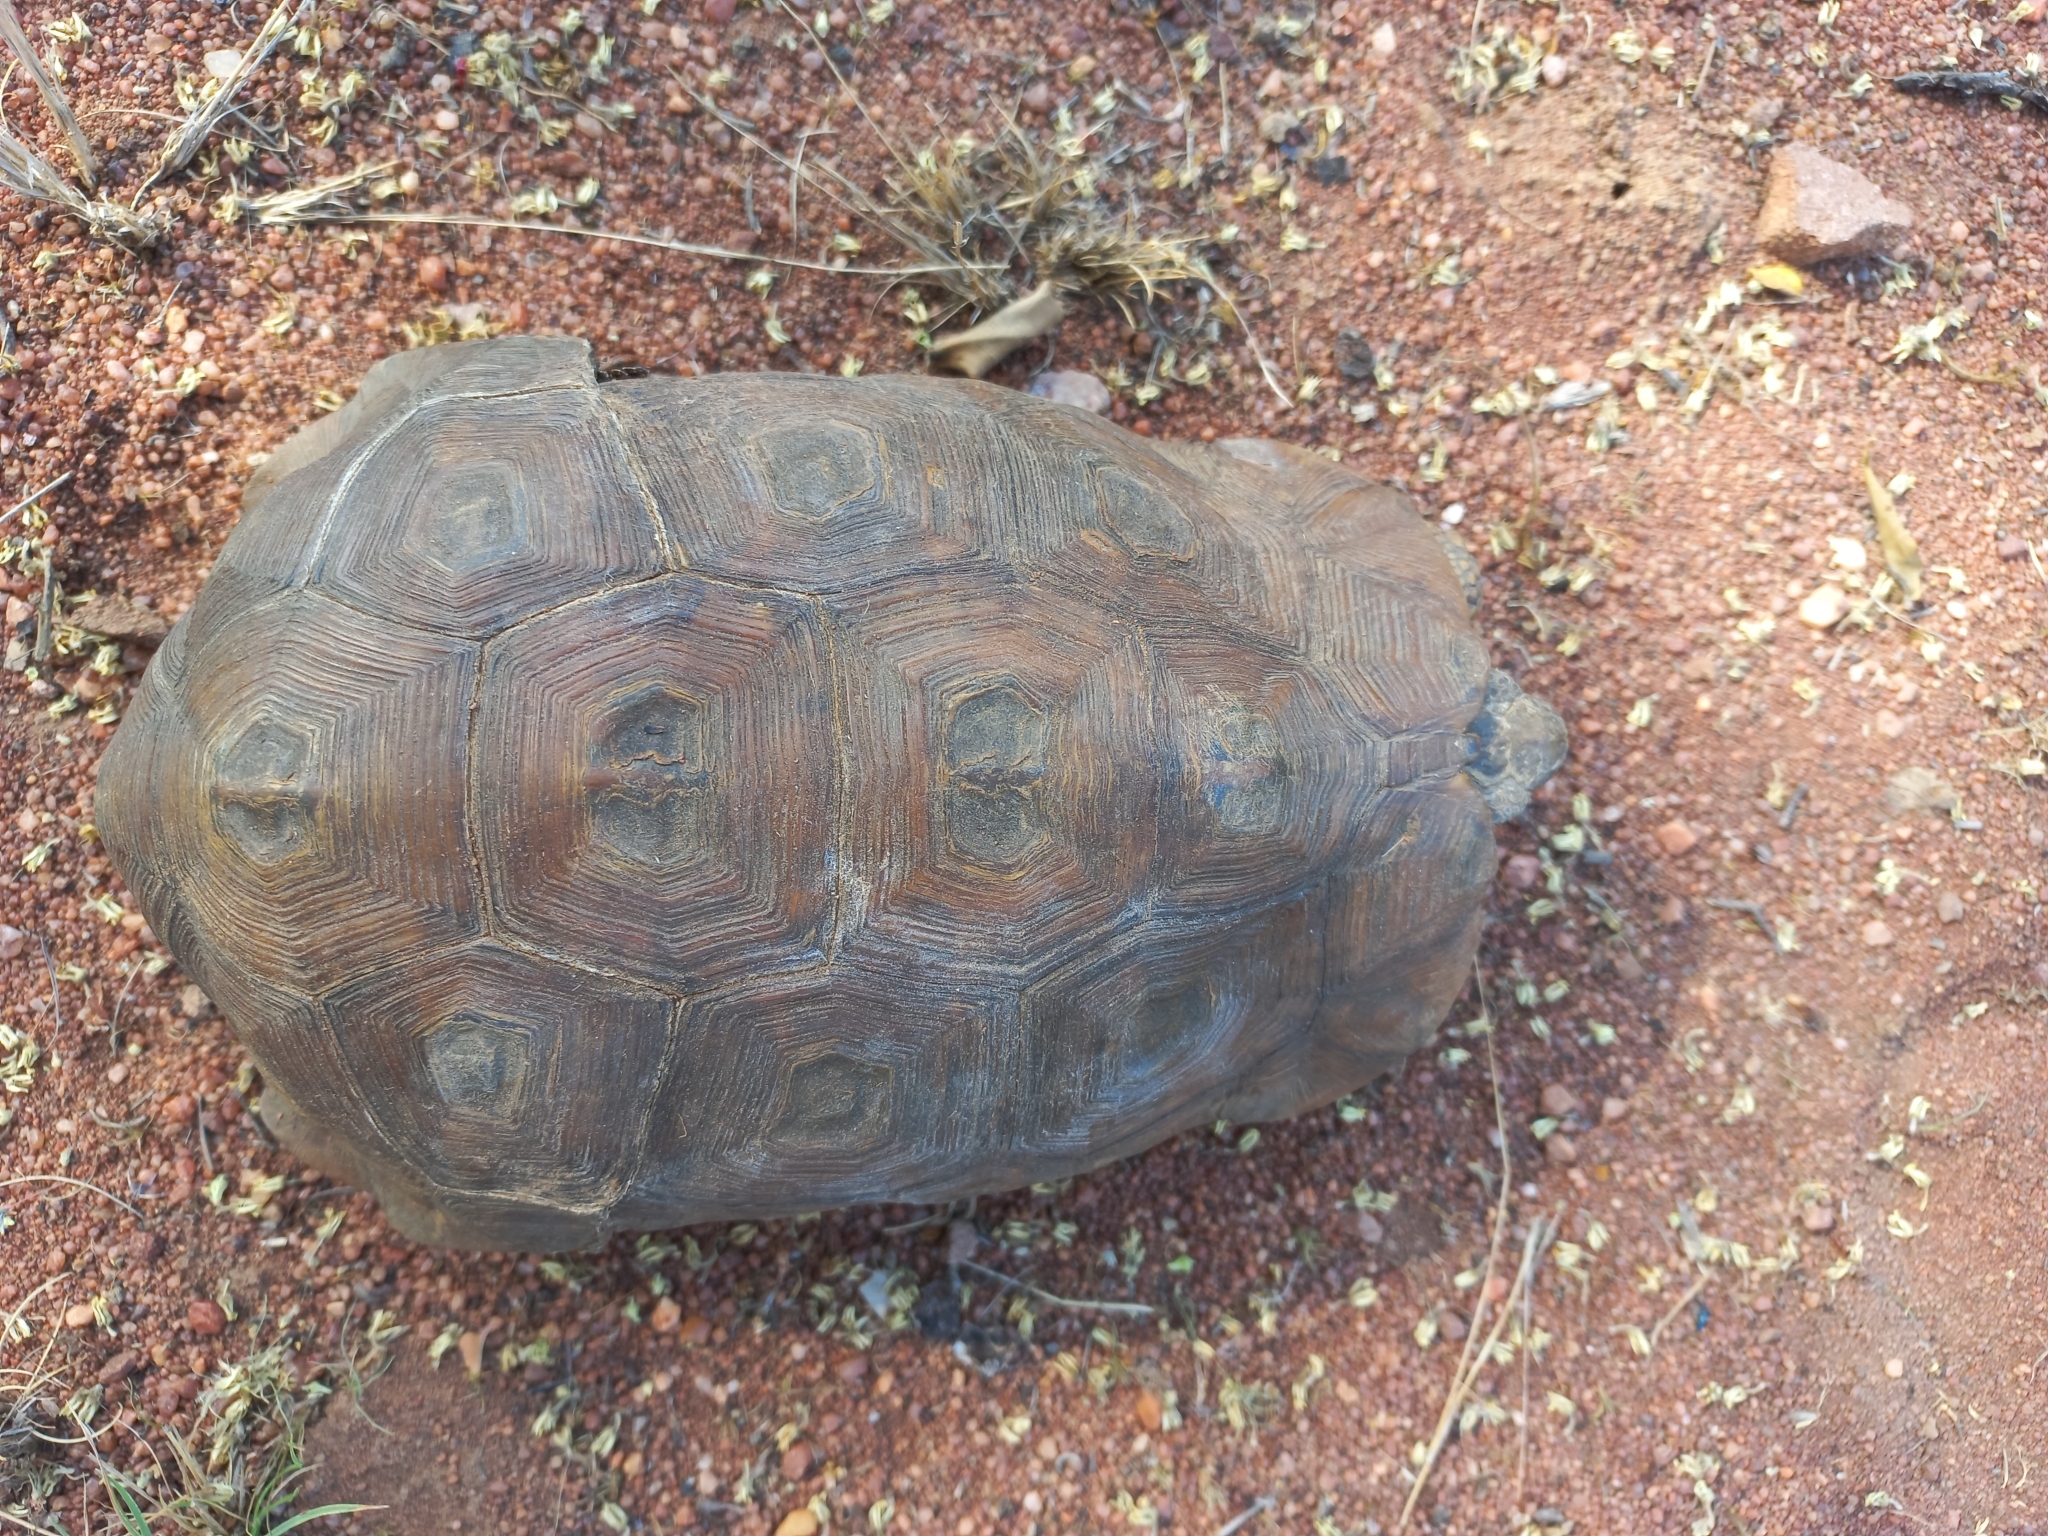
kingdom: Animalia
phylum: Chordata
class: Testudines
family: Testudinidae
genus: Kinixys
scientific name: Kinixys lobatsiana
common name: Lobatse hinge-back tortoise
